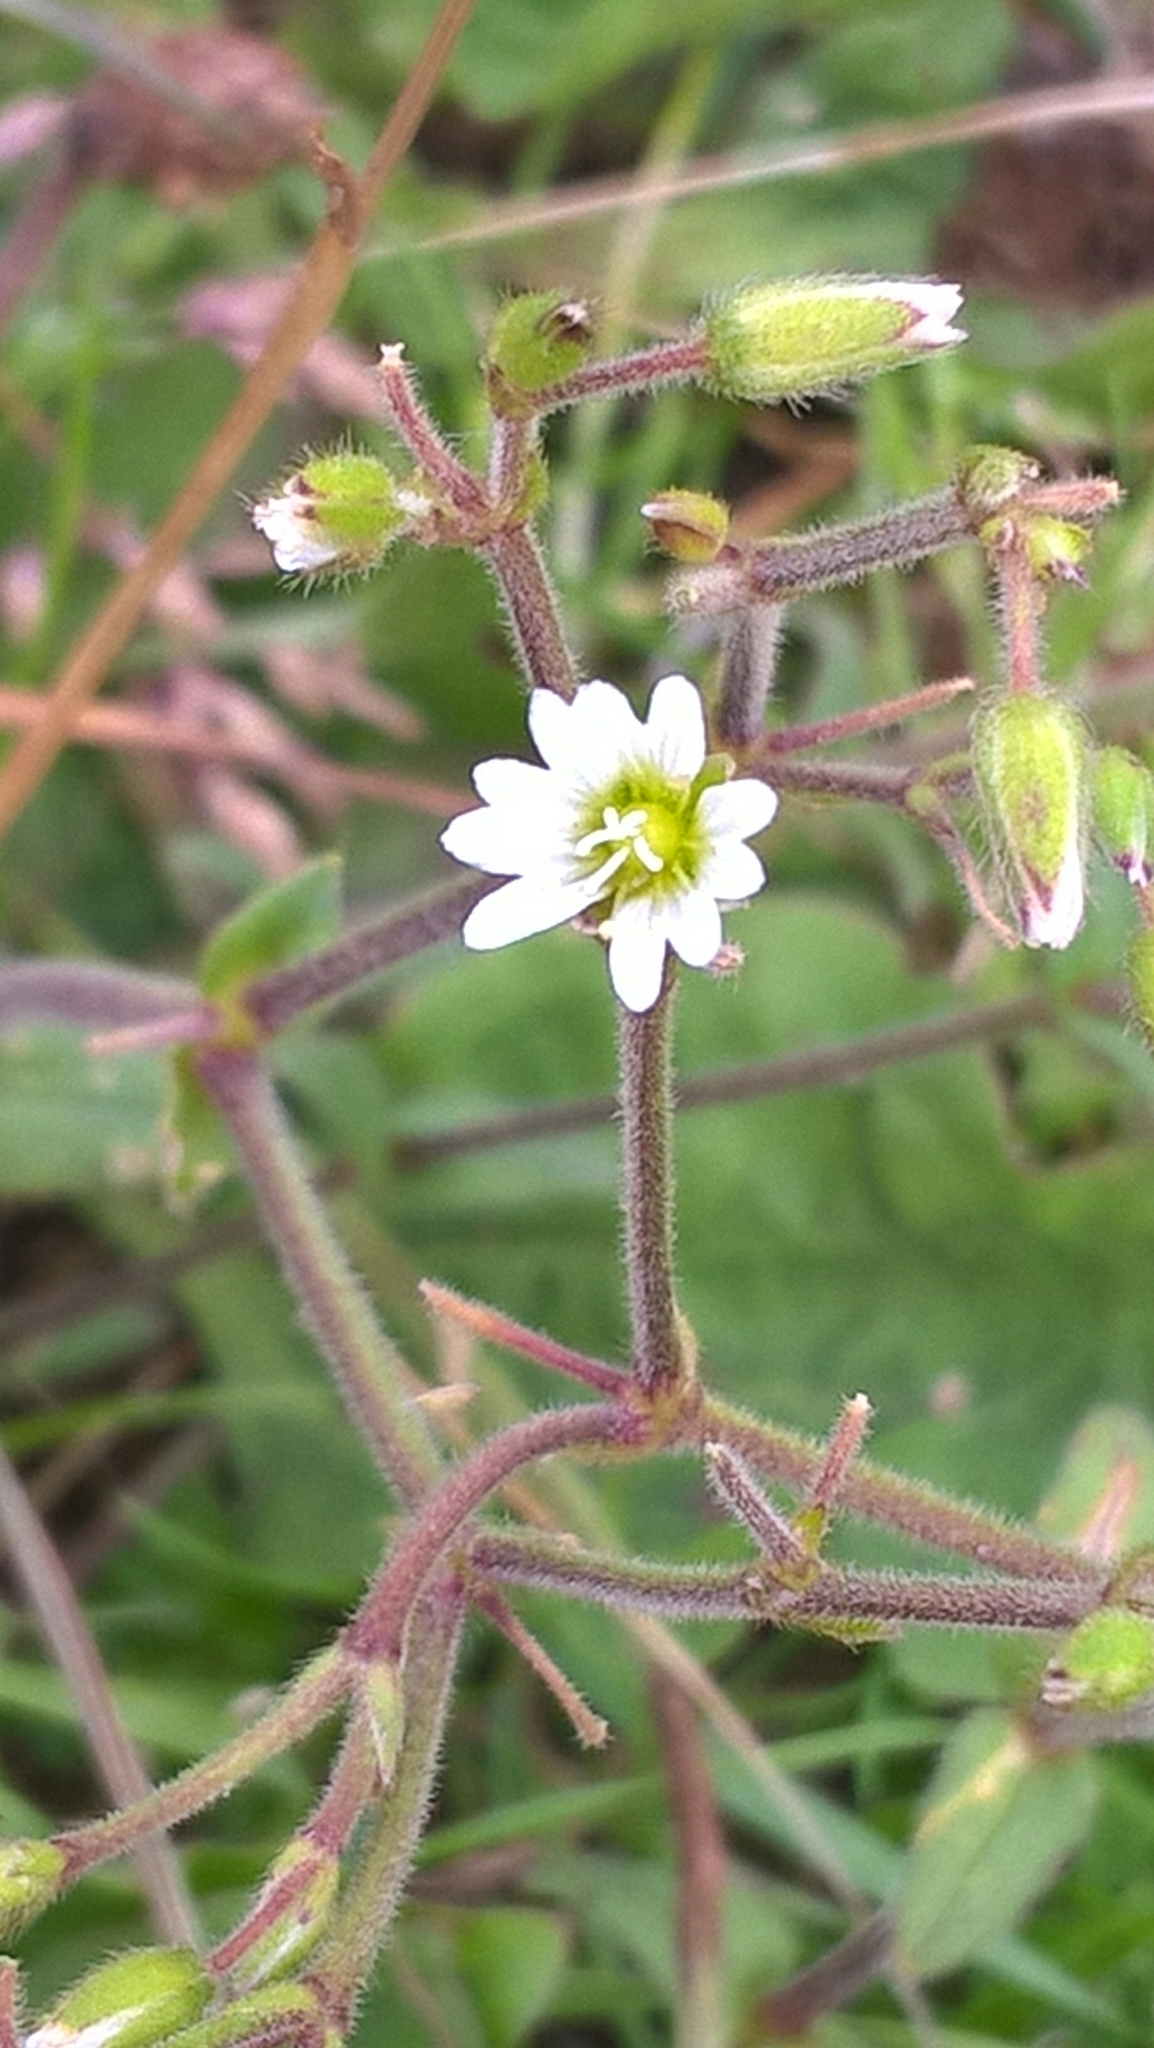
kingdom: Plantae
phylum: Tracheophyta
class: Magnoliopsida
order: Caryophyllales
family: Caryophyllaceae
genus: Cerastium
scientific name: Cerastium fontanum
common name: Common mouse-ear
